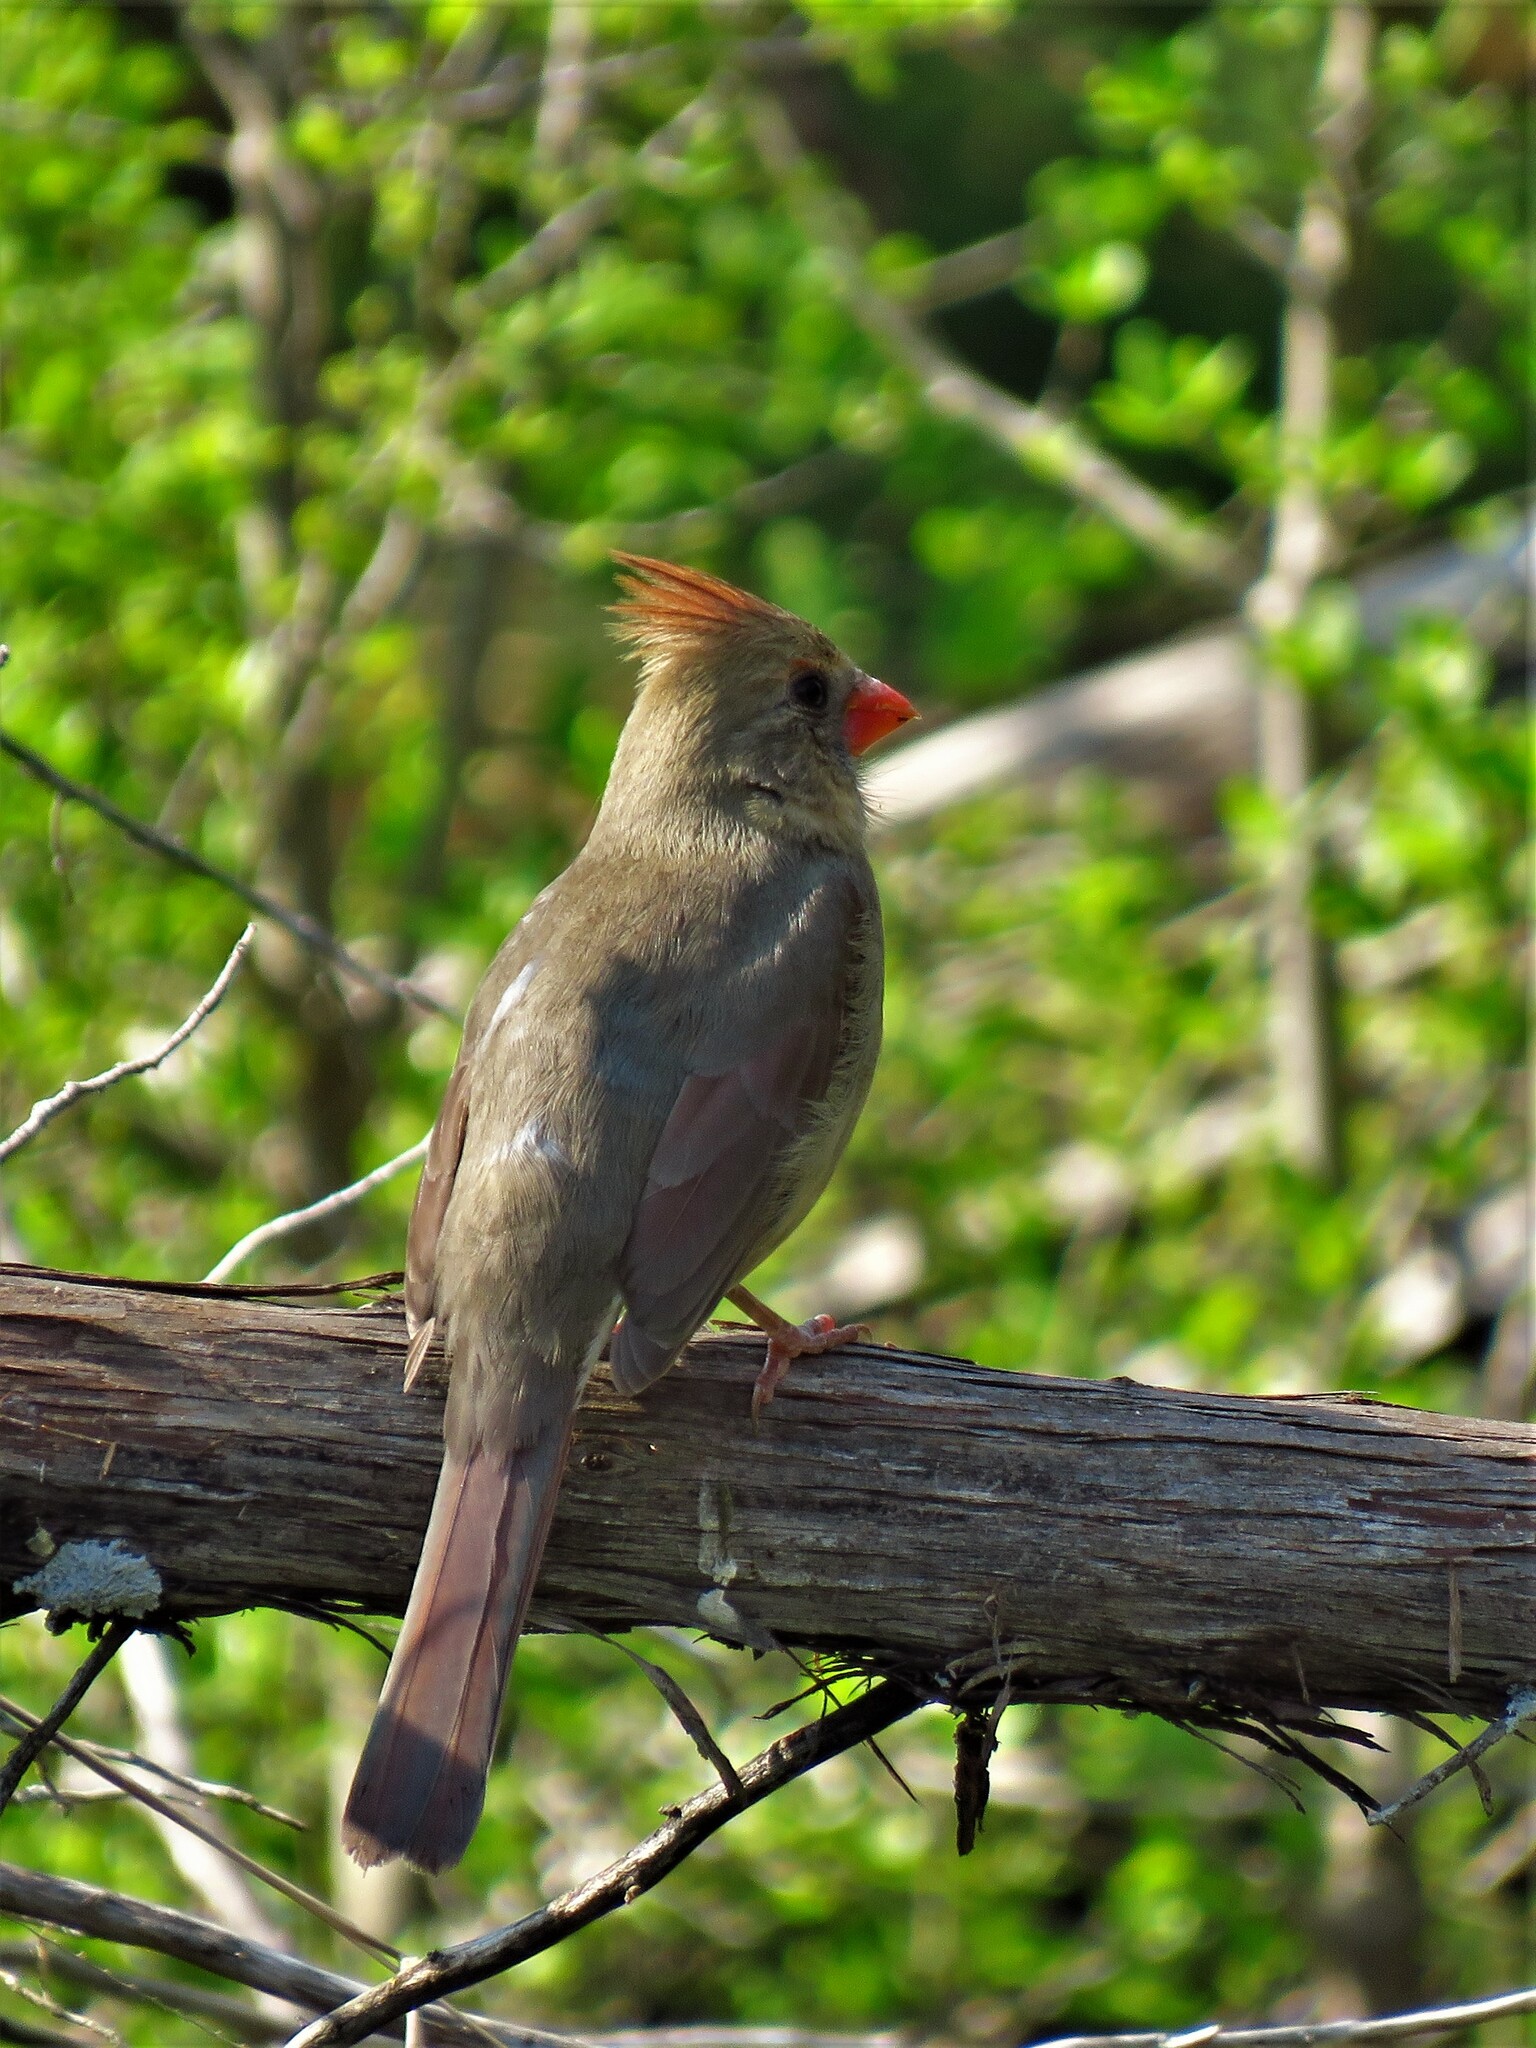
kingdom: Animalia
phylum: Chordata
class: Aves
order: Passeriformes
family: Cardinalidae
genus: Cardinalis
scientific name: Cardinalis cardinalis
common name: Northern cardinal
